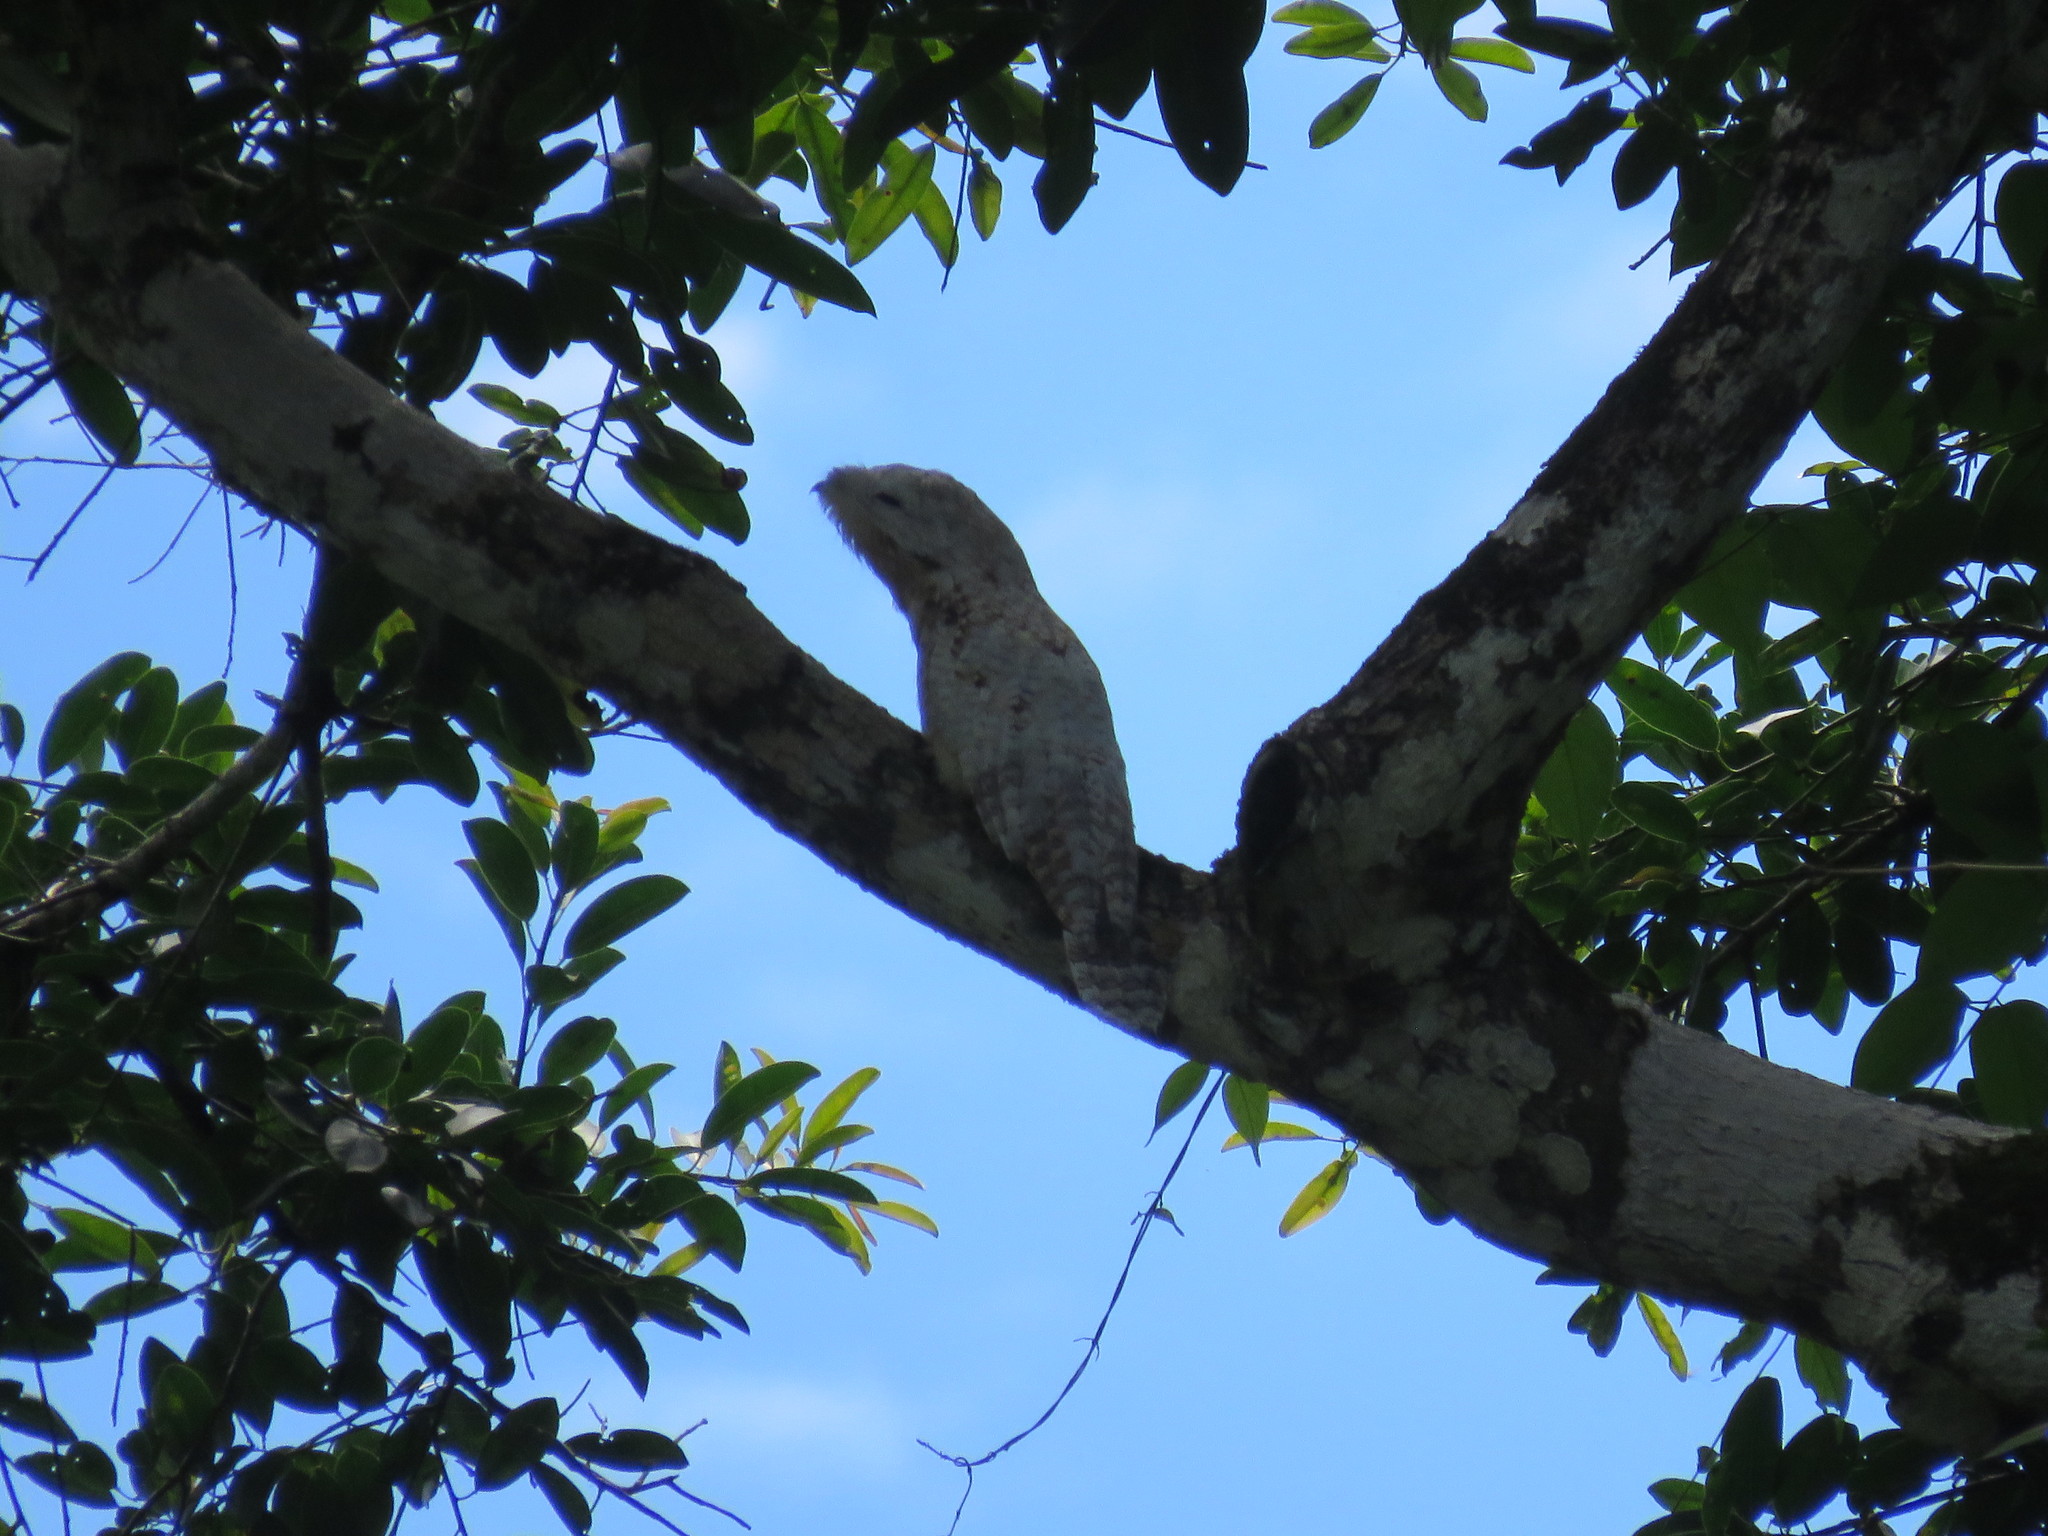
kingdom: Animalia
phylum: Chordata
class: Aves
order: Nyctibiiformes
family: Nyctibiidae
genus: Nyctibius
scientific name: Nyctibius grandis
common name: Great potoo
